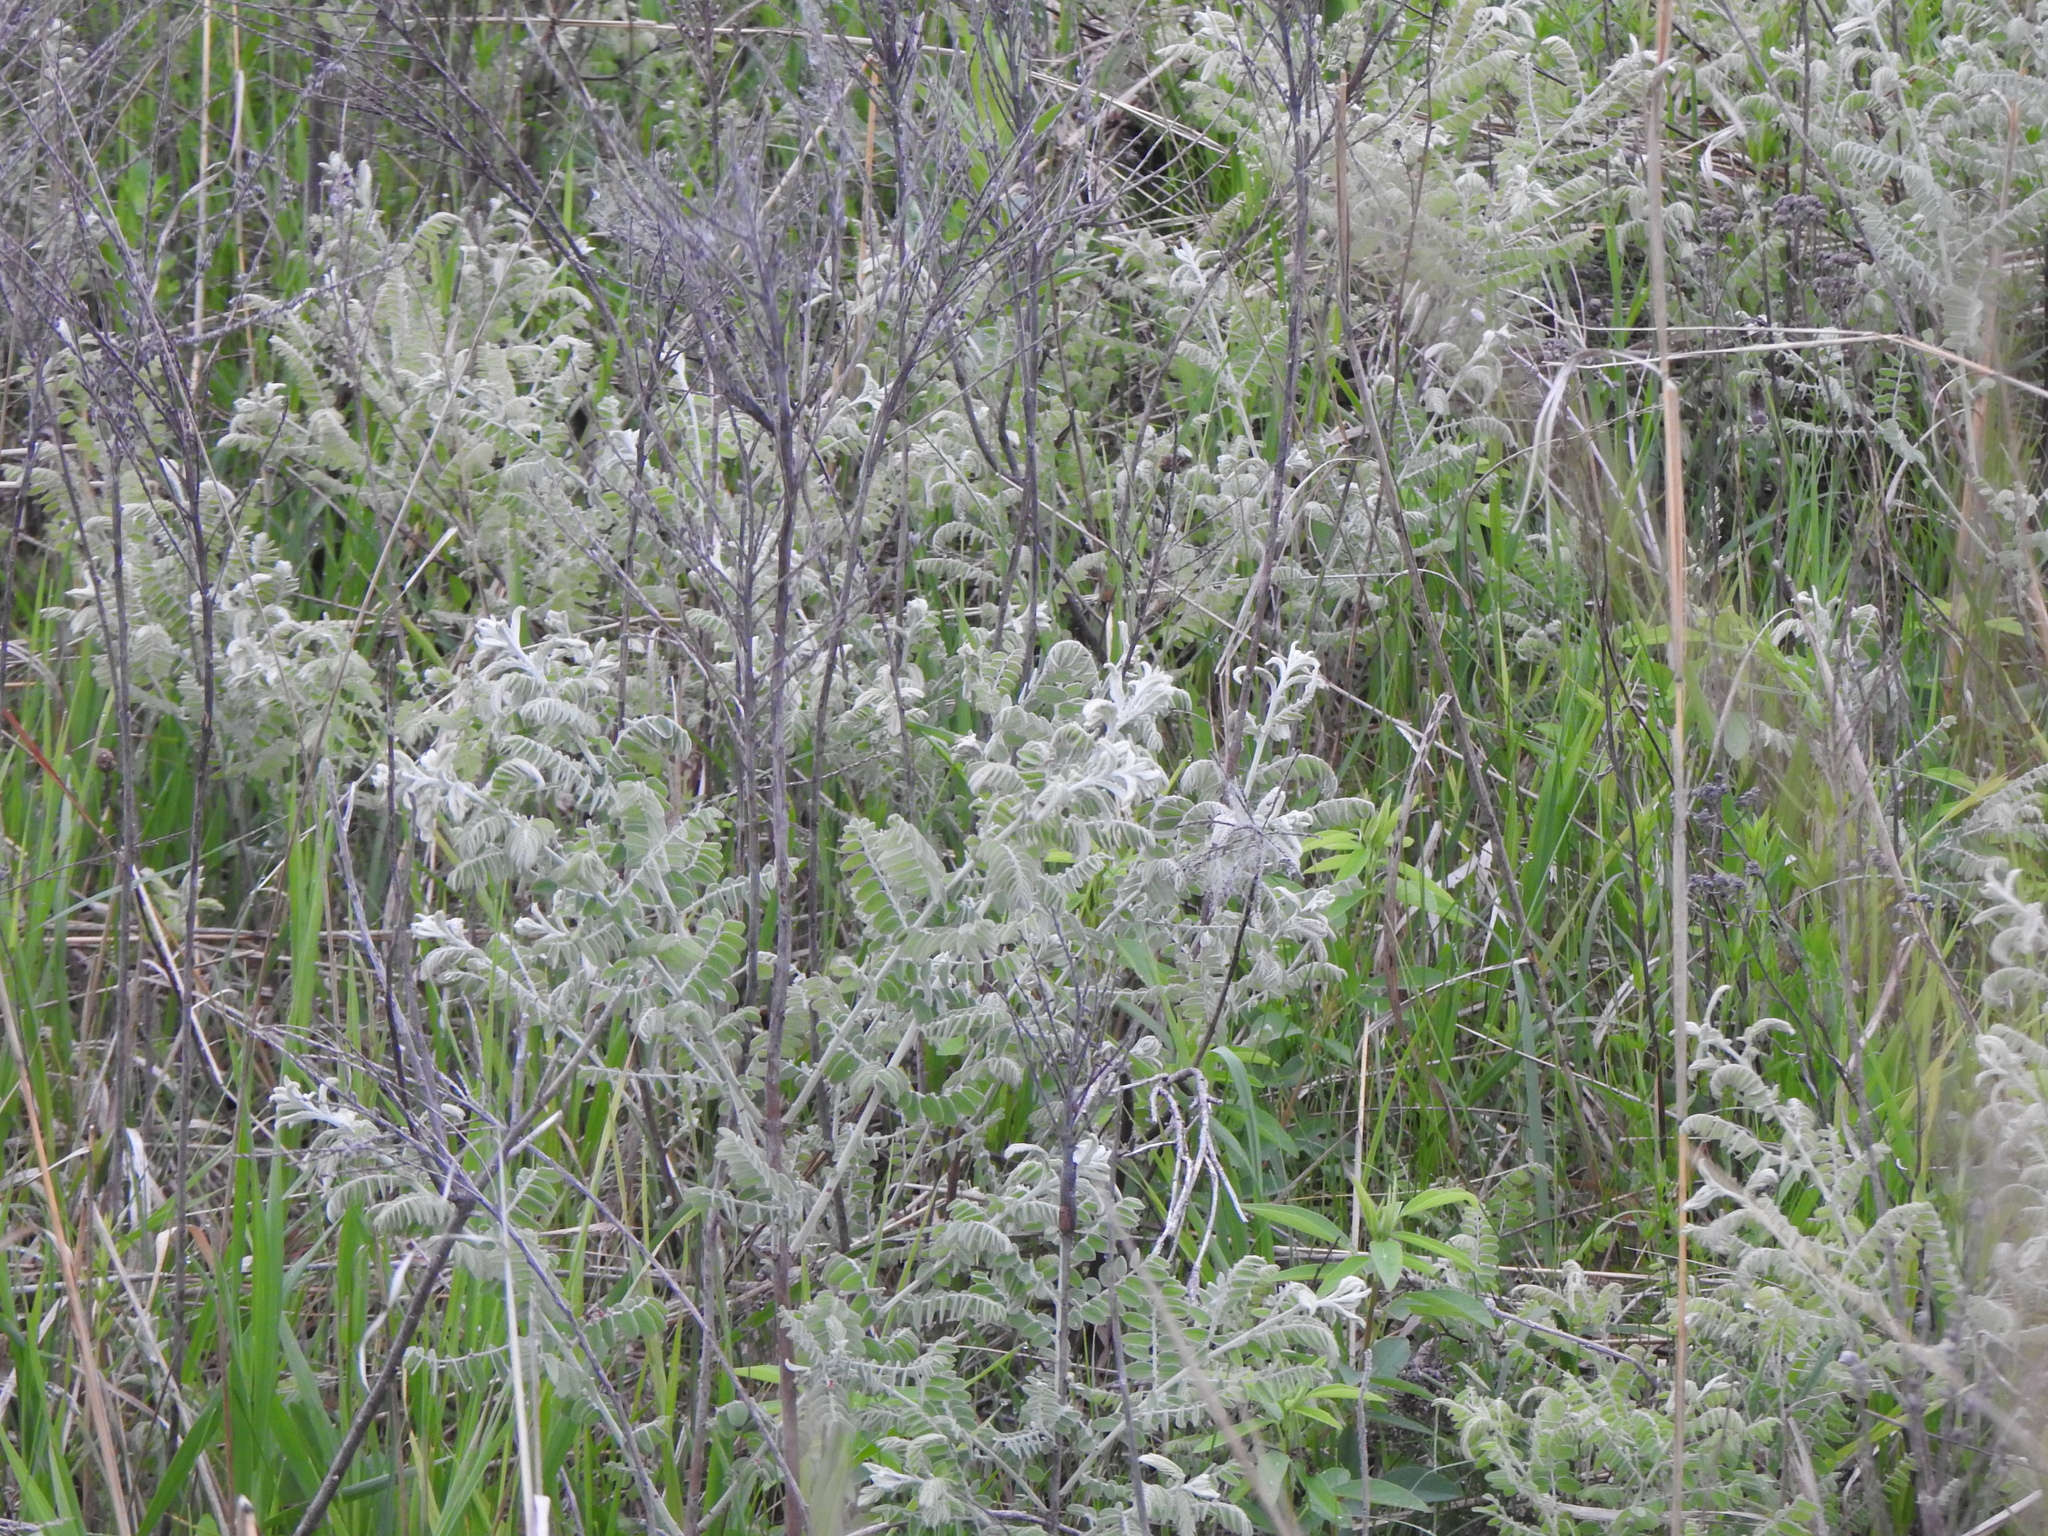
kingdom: Plantae
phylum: Tracheophyta
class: Magnoliopsida
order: Fabales
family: Fabaceae
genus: Amorpha
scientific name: Amorpha canescens
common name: Leadplant
